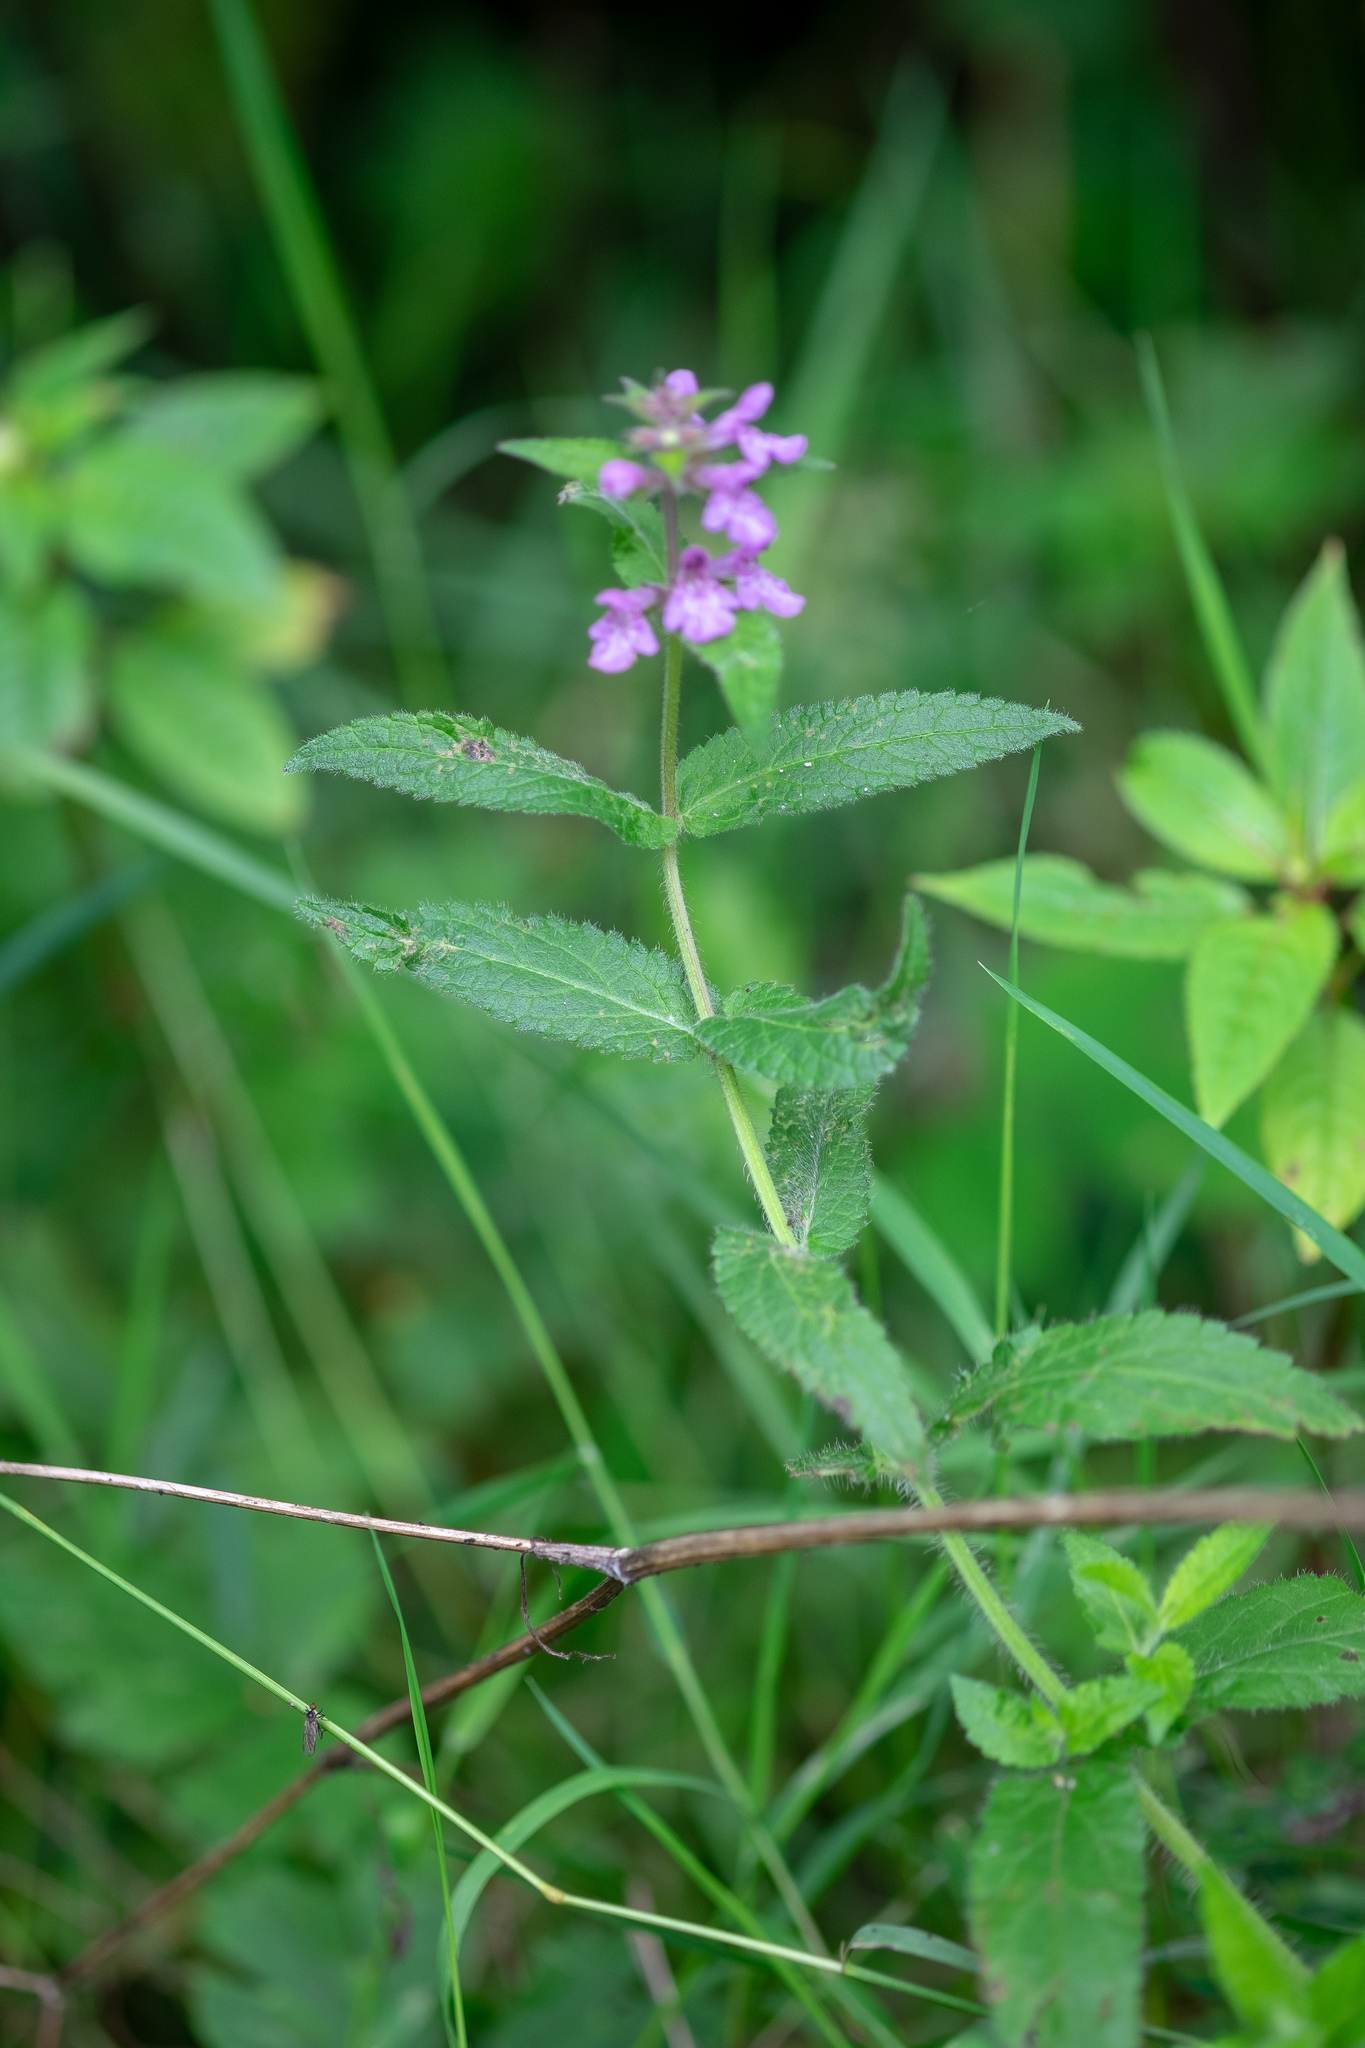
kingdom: Plantae
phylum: Tracheophyta
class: Magnoliopsida
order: Lamiales
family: Lamiaceae
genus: Stachys
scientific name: Stachys palustris
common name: Marsh woundwort
